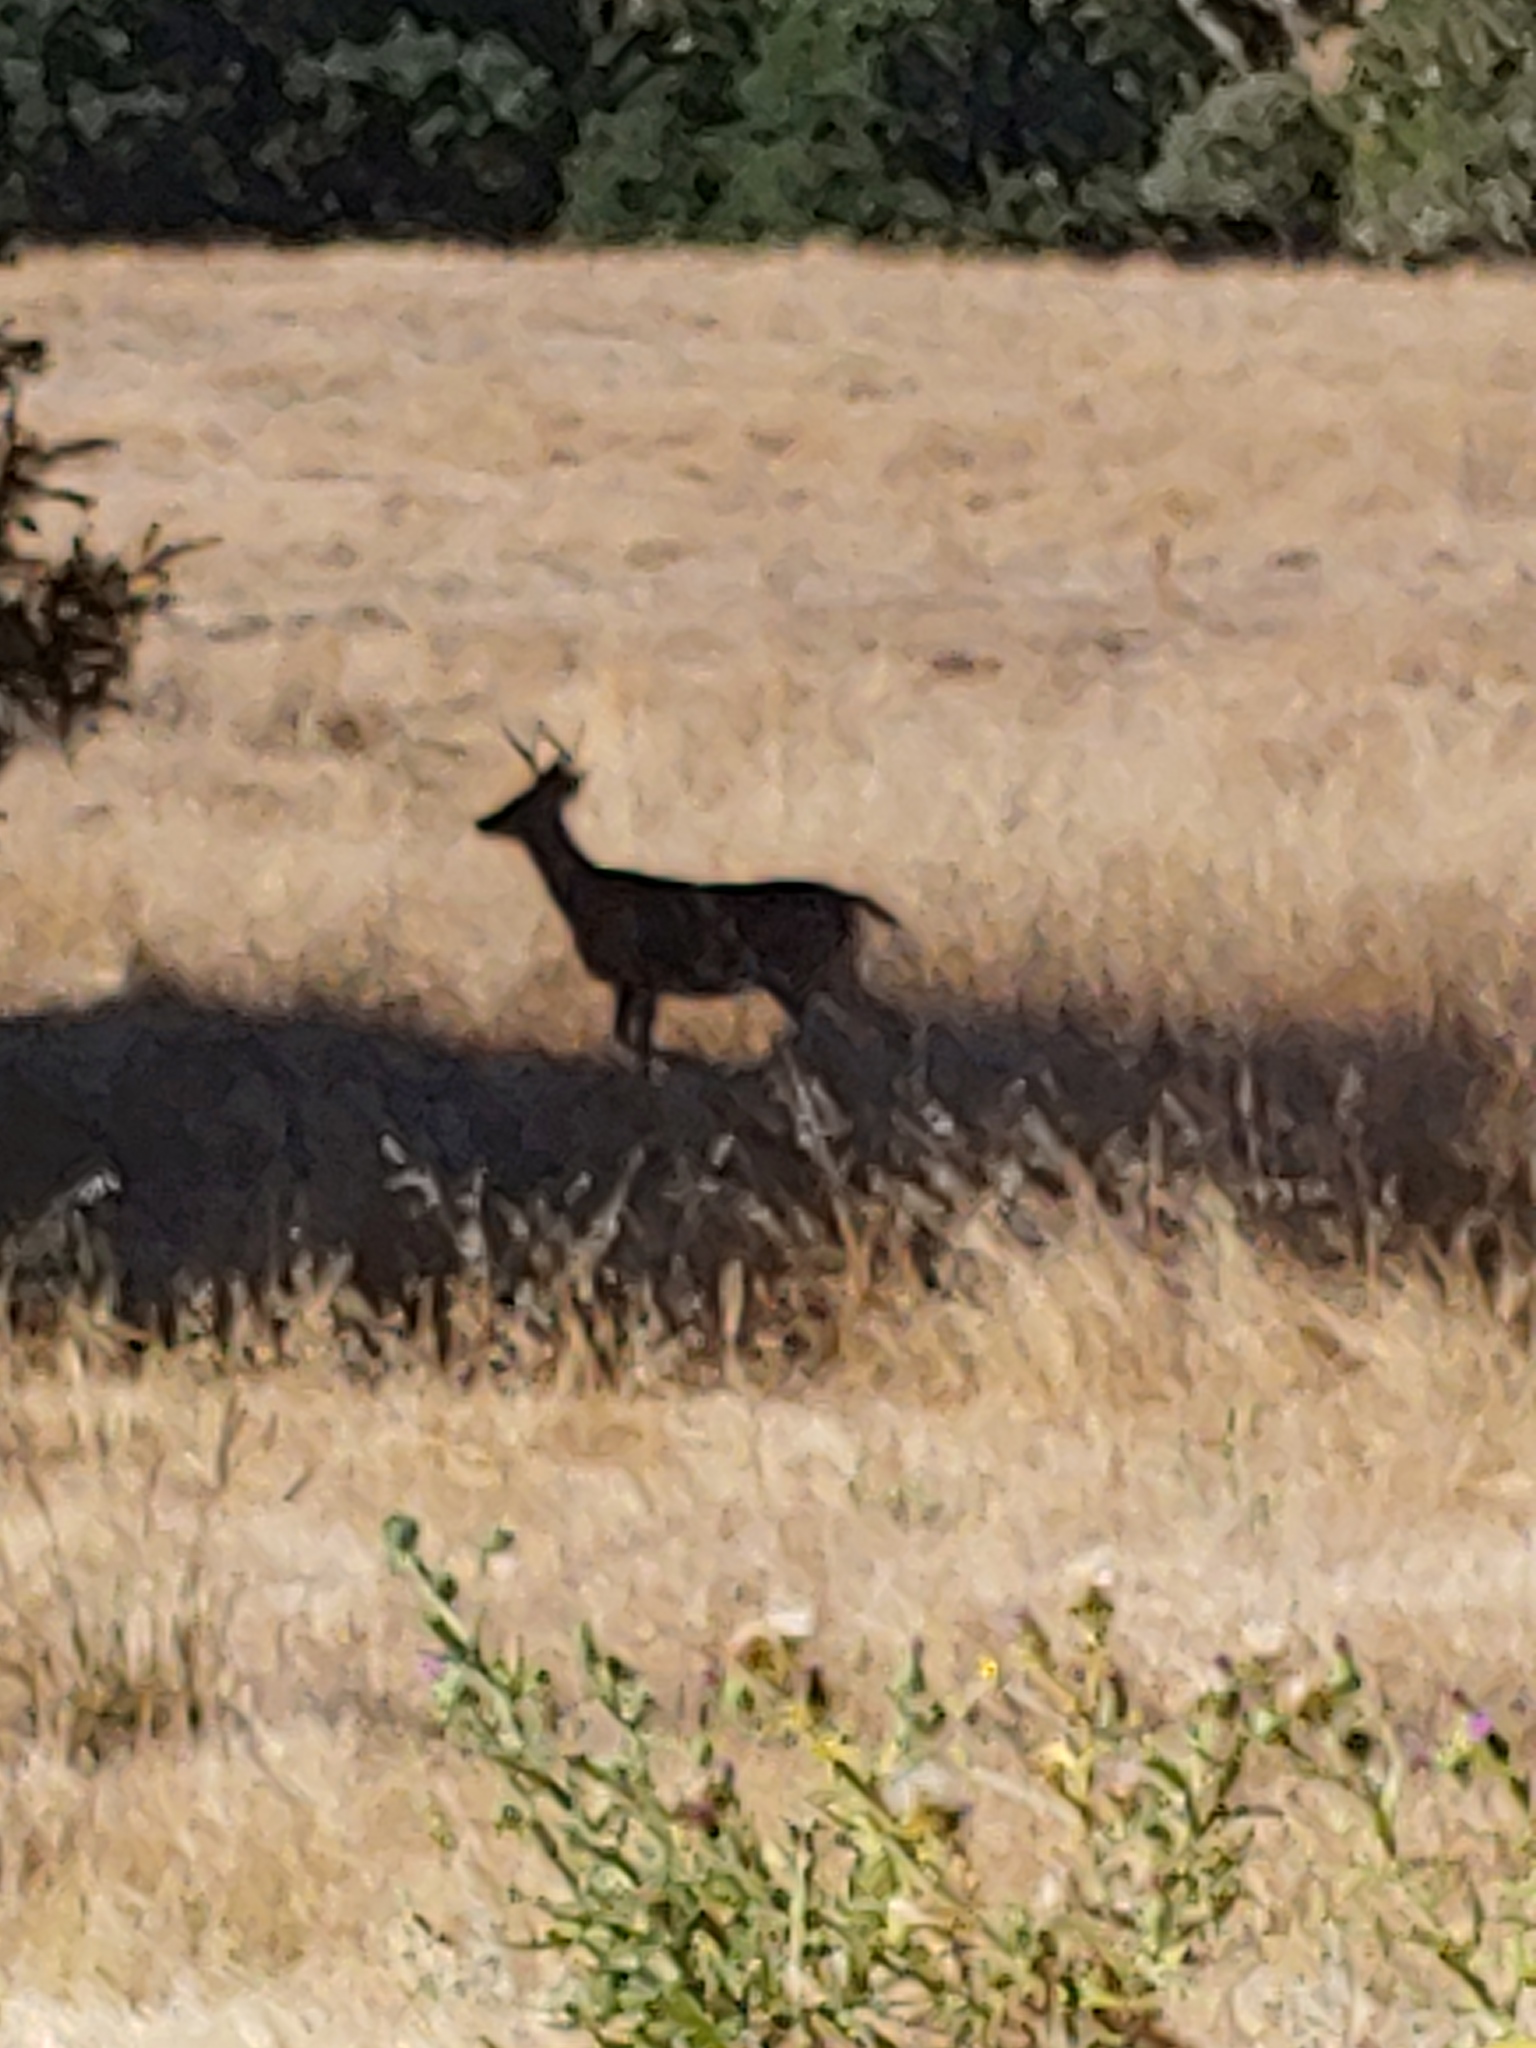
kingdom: Animalia
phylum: Chordata
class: Mammalia
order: Artiodactyla
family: Cervidae
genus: Odocoileus
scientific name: Odocoileus hemionus
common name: Mule deer
